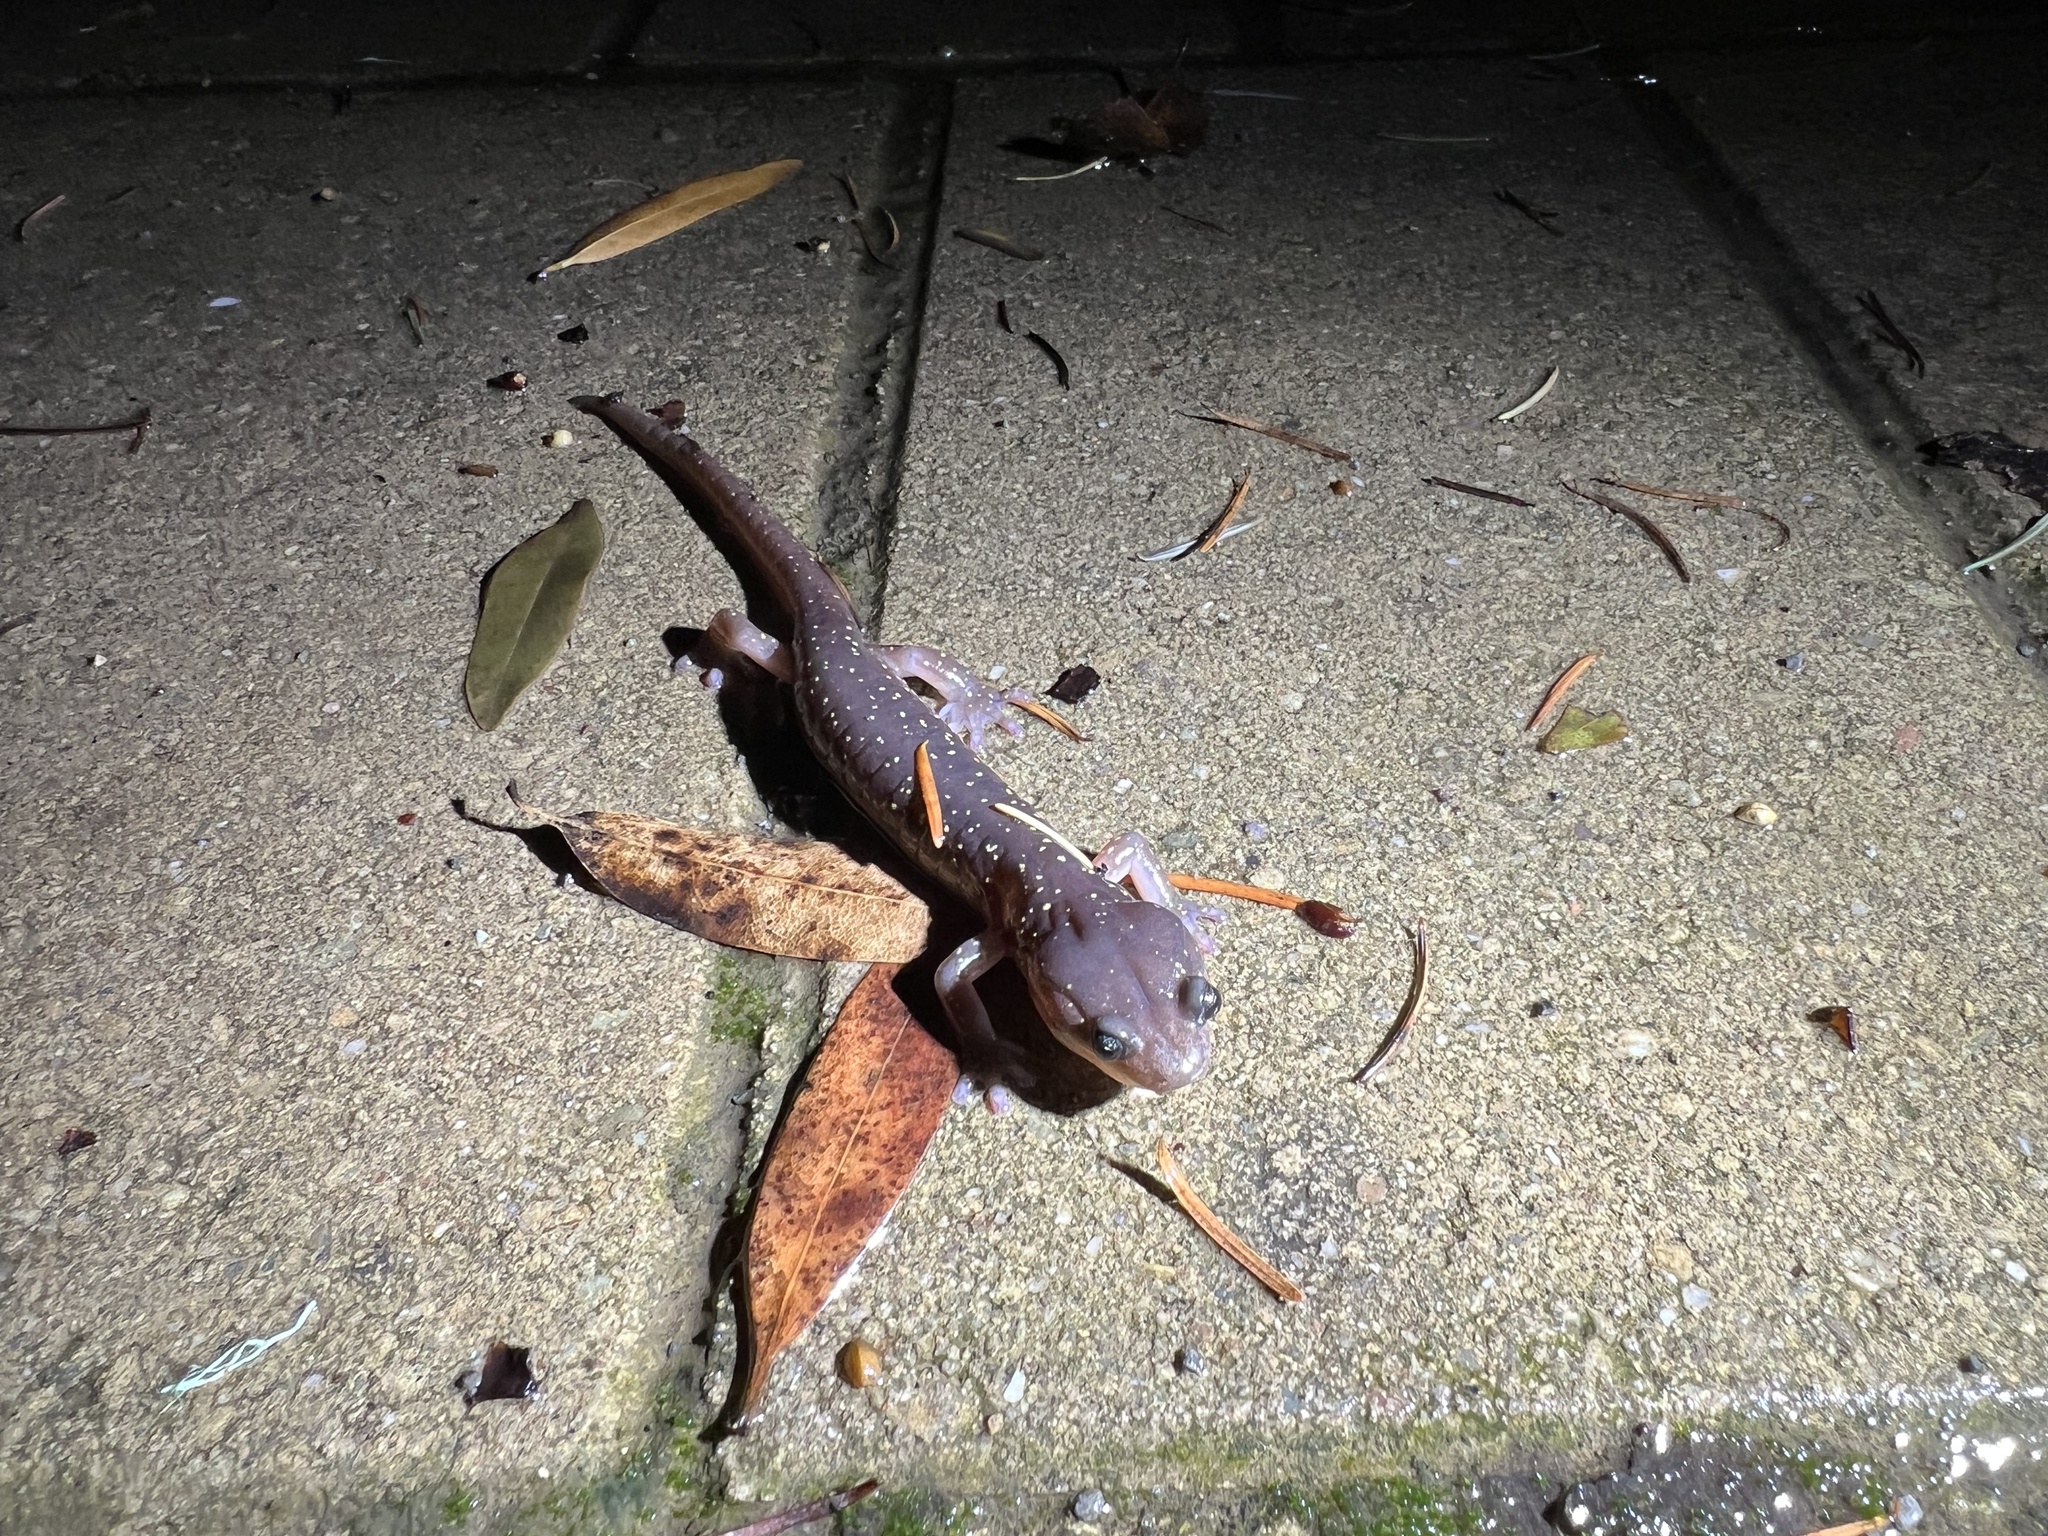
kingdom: Animalia
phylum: Chordata
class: Amphibia
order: Caudata
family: Plethodontidae
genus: Aneides
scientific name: Aneides lugubris
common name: Arboreal salamander
